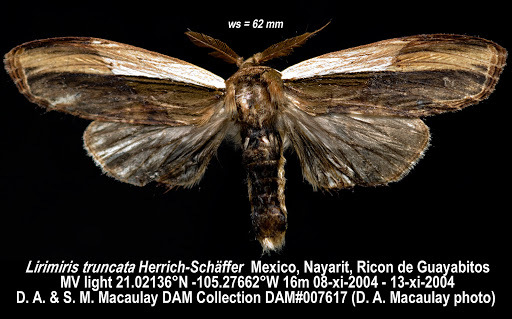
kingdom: Animalia
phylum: Arthropoda
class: Insecta
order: Lepidoptera
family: Notodontidae
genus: Truncaptera
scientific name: Truncaptera
